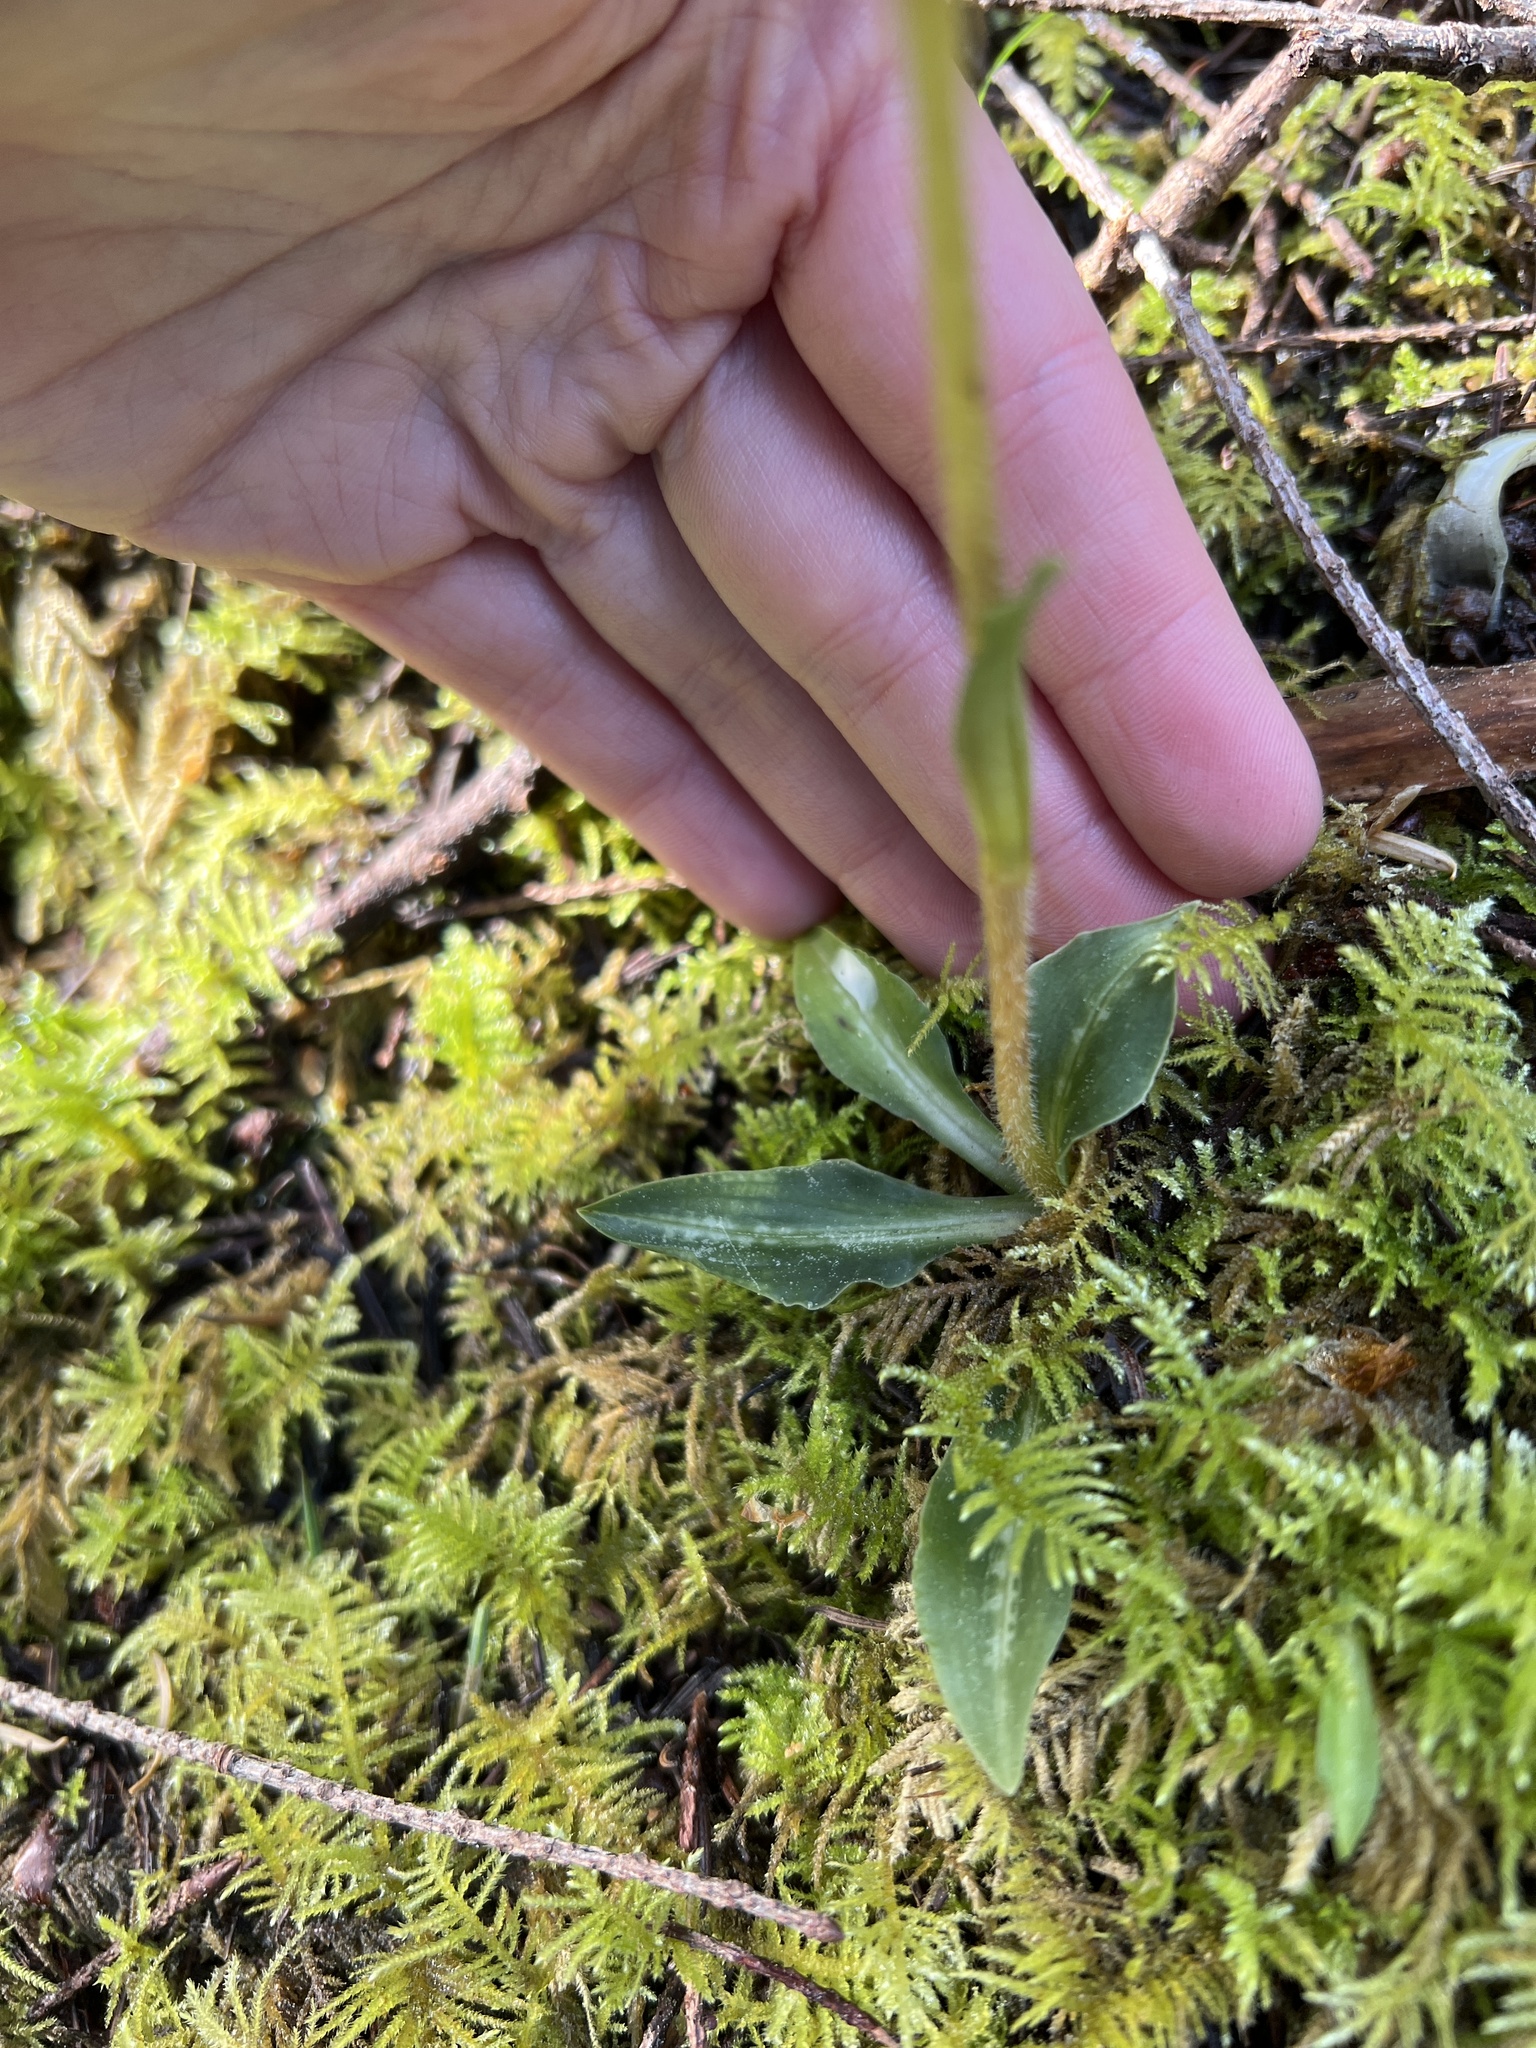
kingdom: Plantae
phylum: Tracheophyta
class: Liliopsida
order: Asparagales
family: Orchidaceae
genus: Goodyera
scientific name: Goodyera oblongifolia
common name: Giant rattlesnake-plantain
